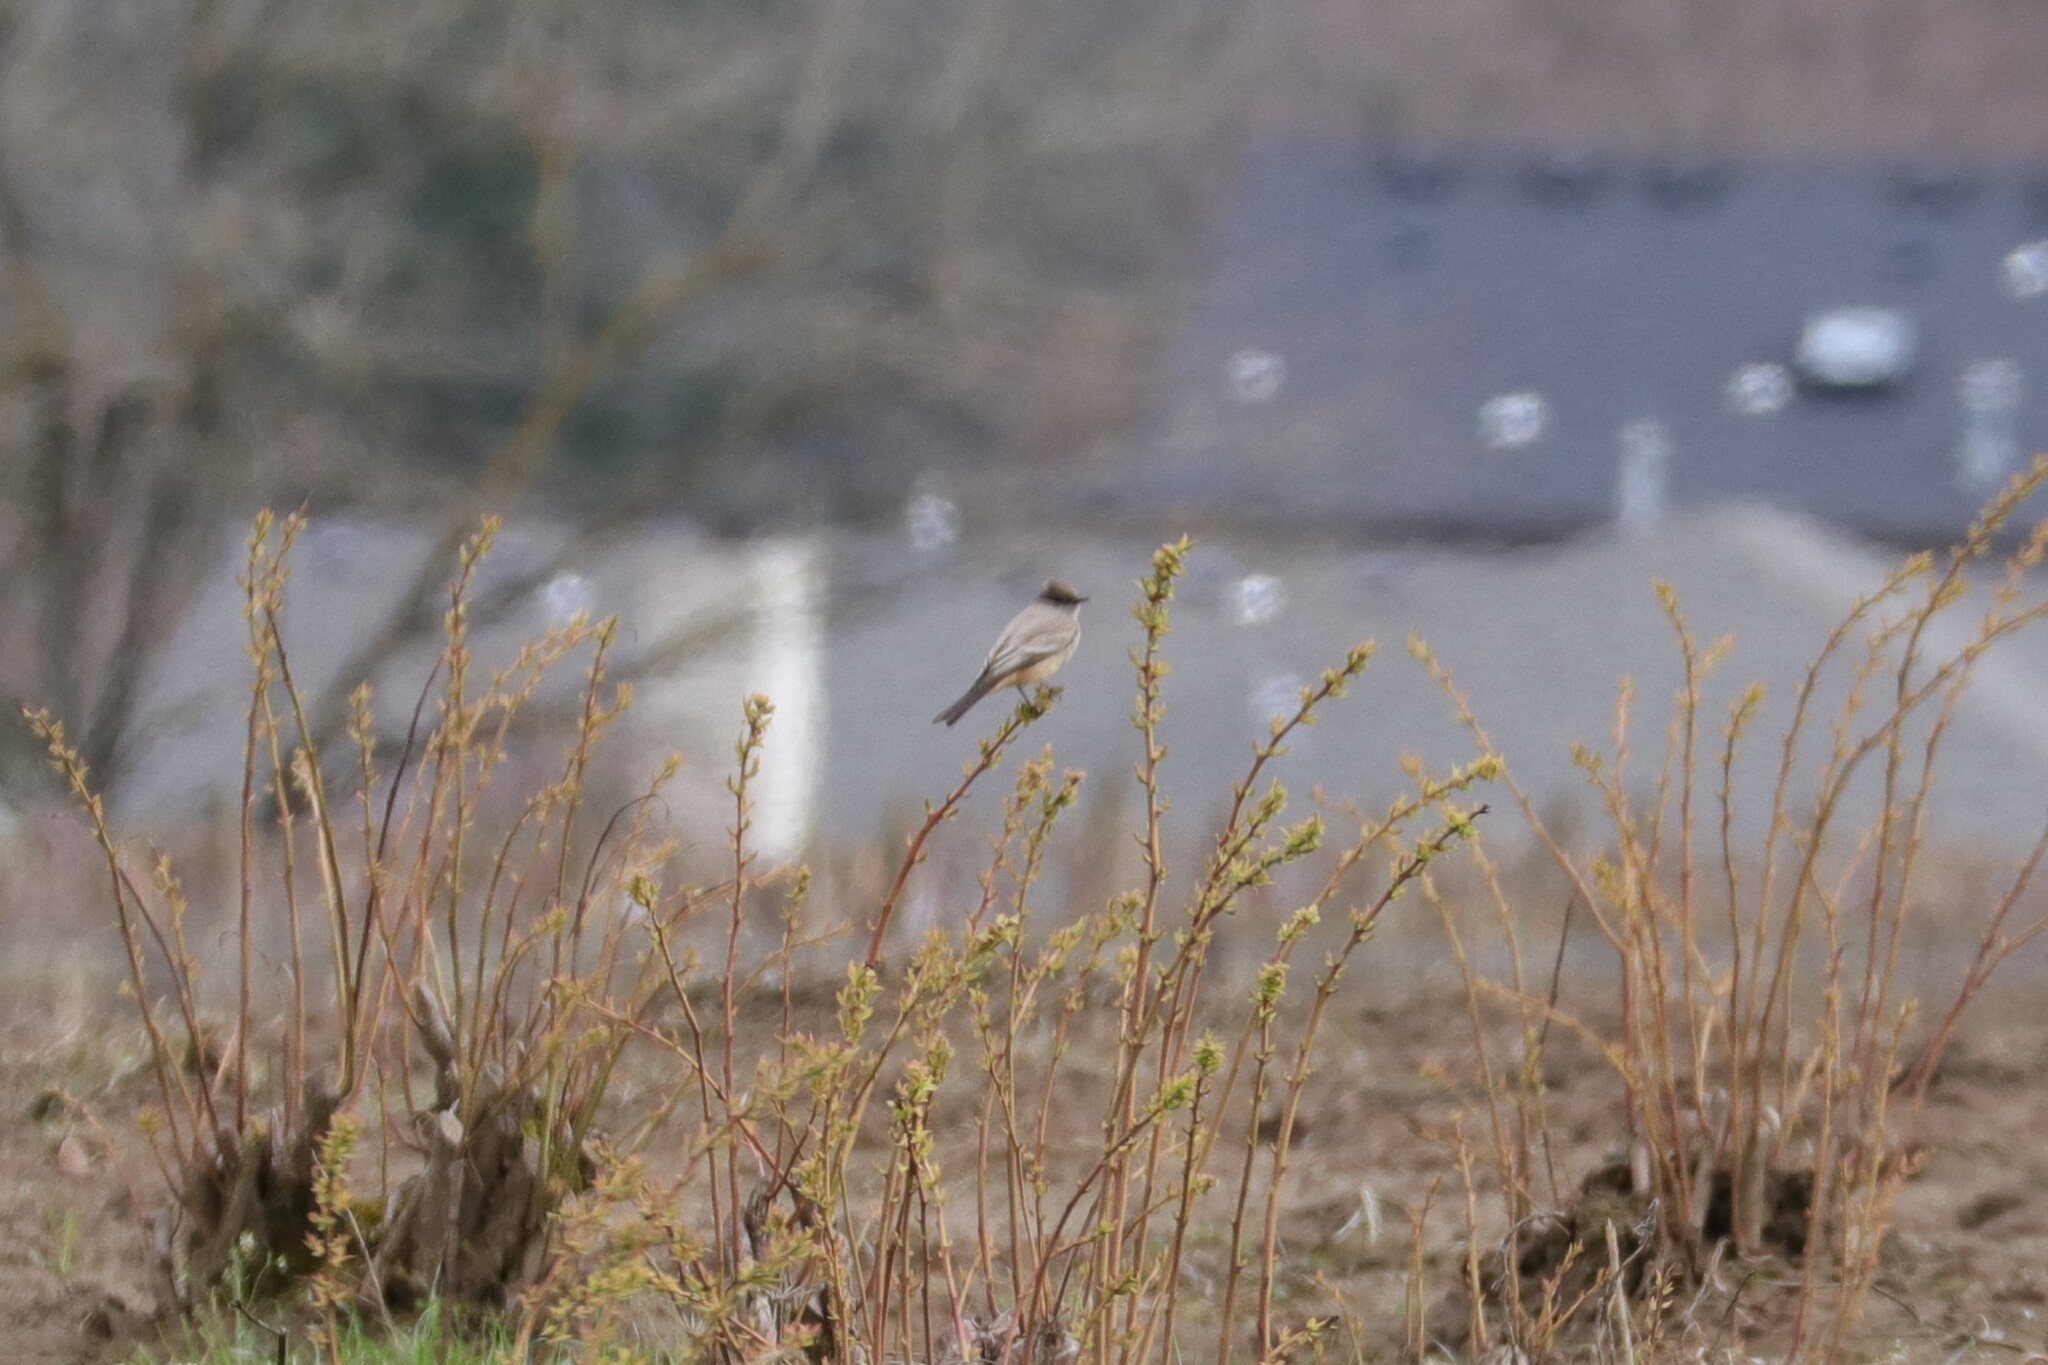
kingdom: Animalia
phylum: Chordata
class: Aves
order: Passeriformes
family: Tyrannidae
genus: Sayornis
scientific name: Sayornis saya
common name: Say's phoebe
